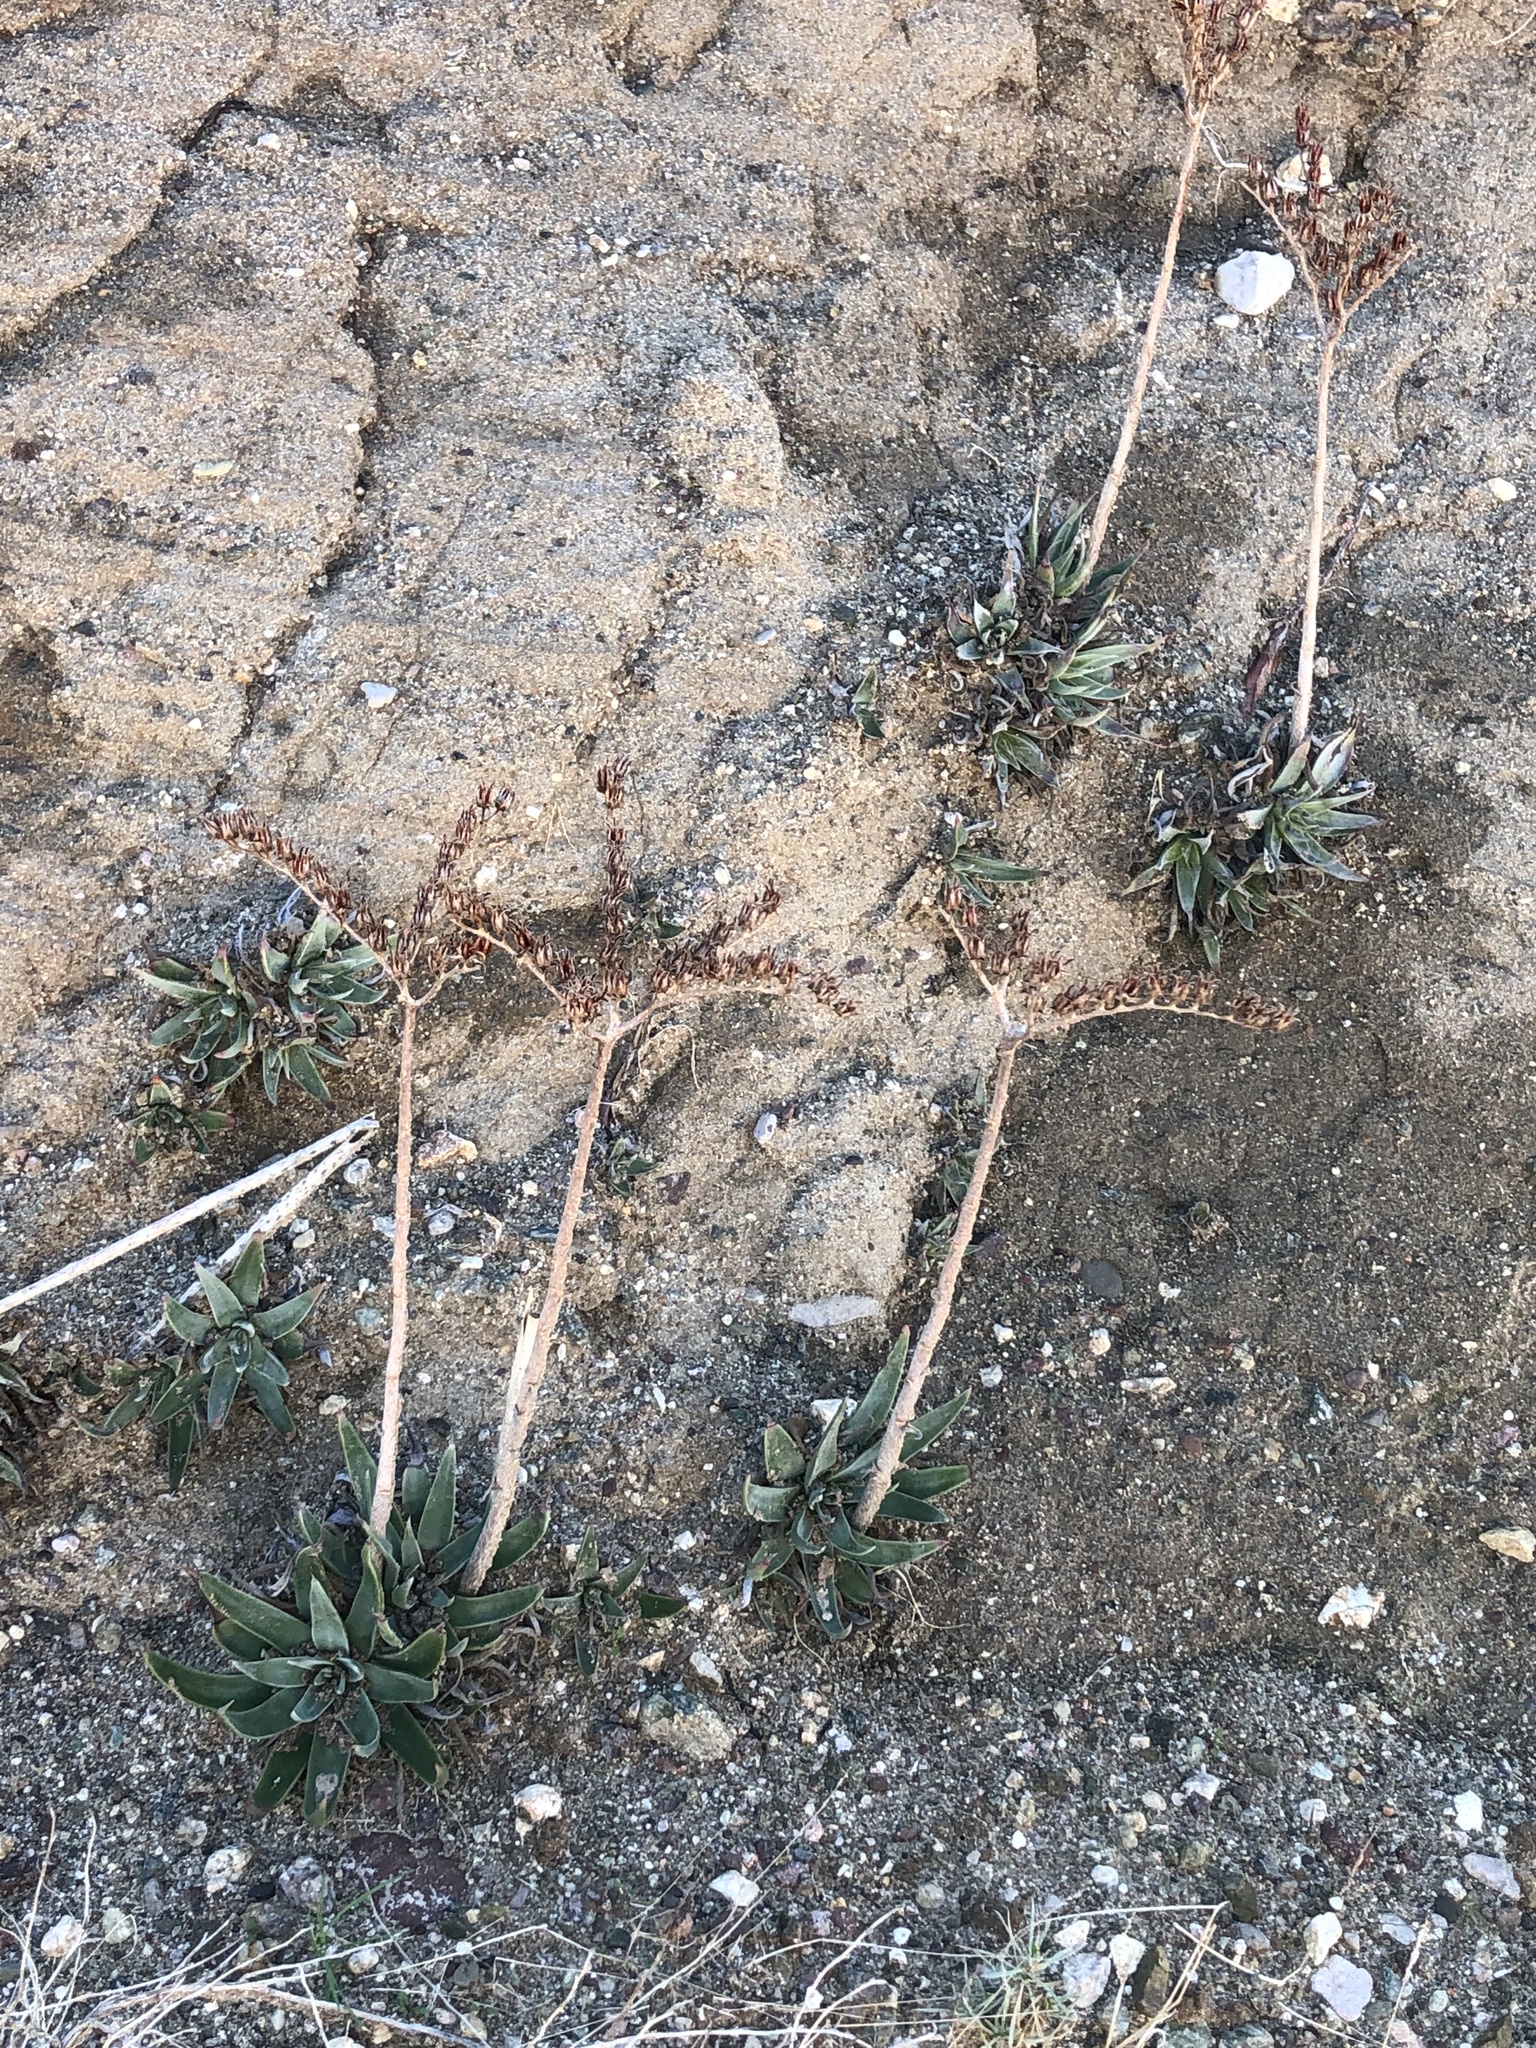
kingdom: Plantae
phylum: Tracheophyta
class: Magnoliopsida
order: Saxifragales
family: Crassulaceae
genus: Dudleya
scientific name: Dudleya lanceolata
